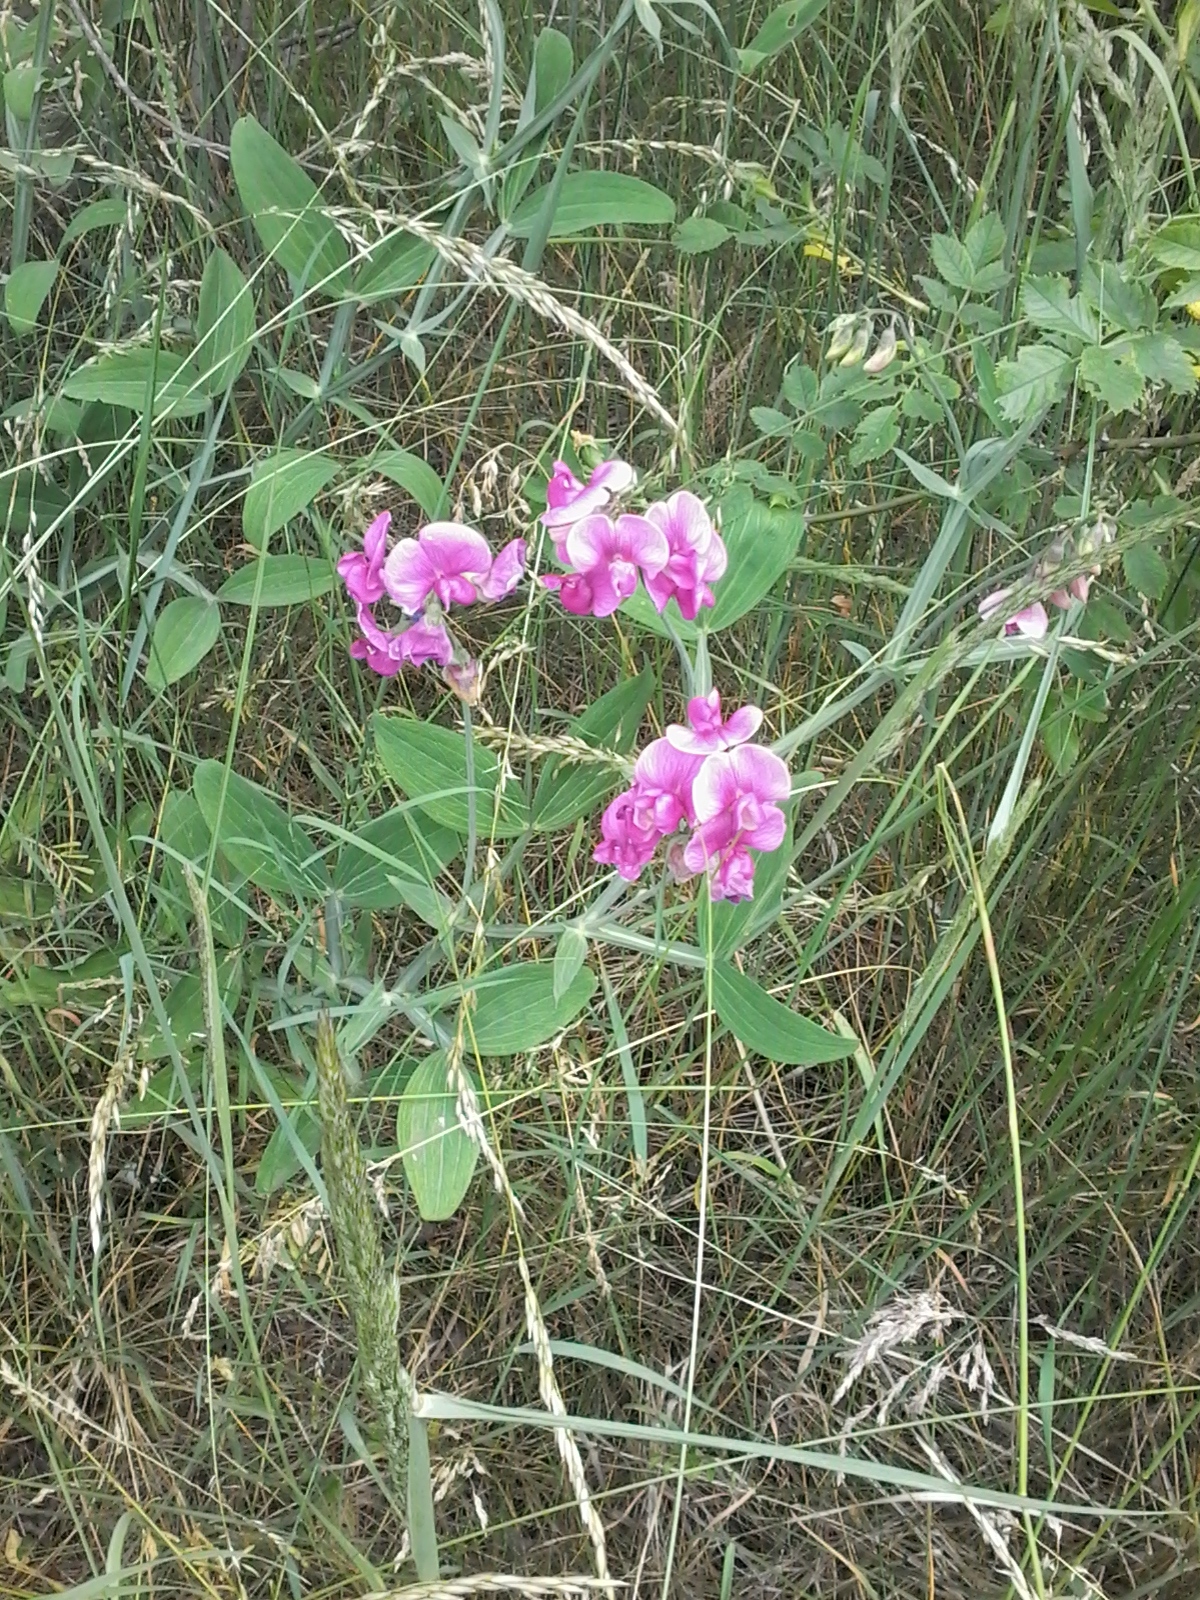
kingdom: Plantae
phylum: Tracheophyta
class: Magnoliopsida
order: Fabales
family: Fabaceae
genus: Lathyrus
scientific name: Lathyrus latifolius
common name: Perennial pea
